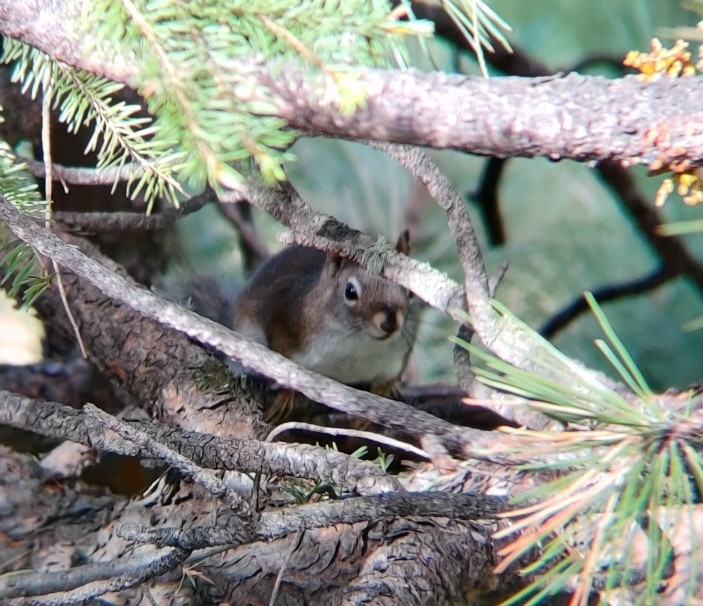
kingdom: Animalia
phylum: Chordata
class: Mammalia
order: Rodentia
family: Sciuridae
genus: Tamiasciurus
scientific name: Tamiasciurus hudsonicus
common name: Red squirrel
